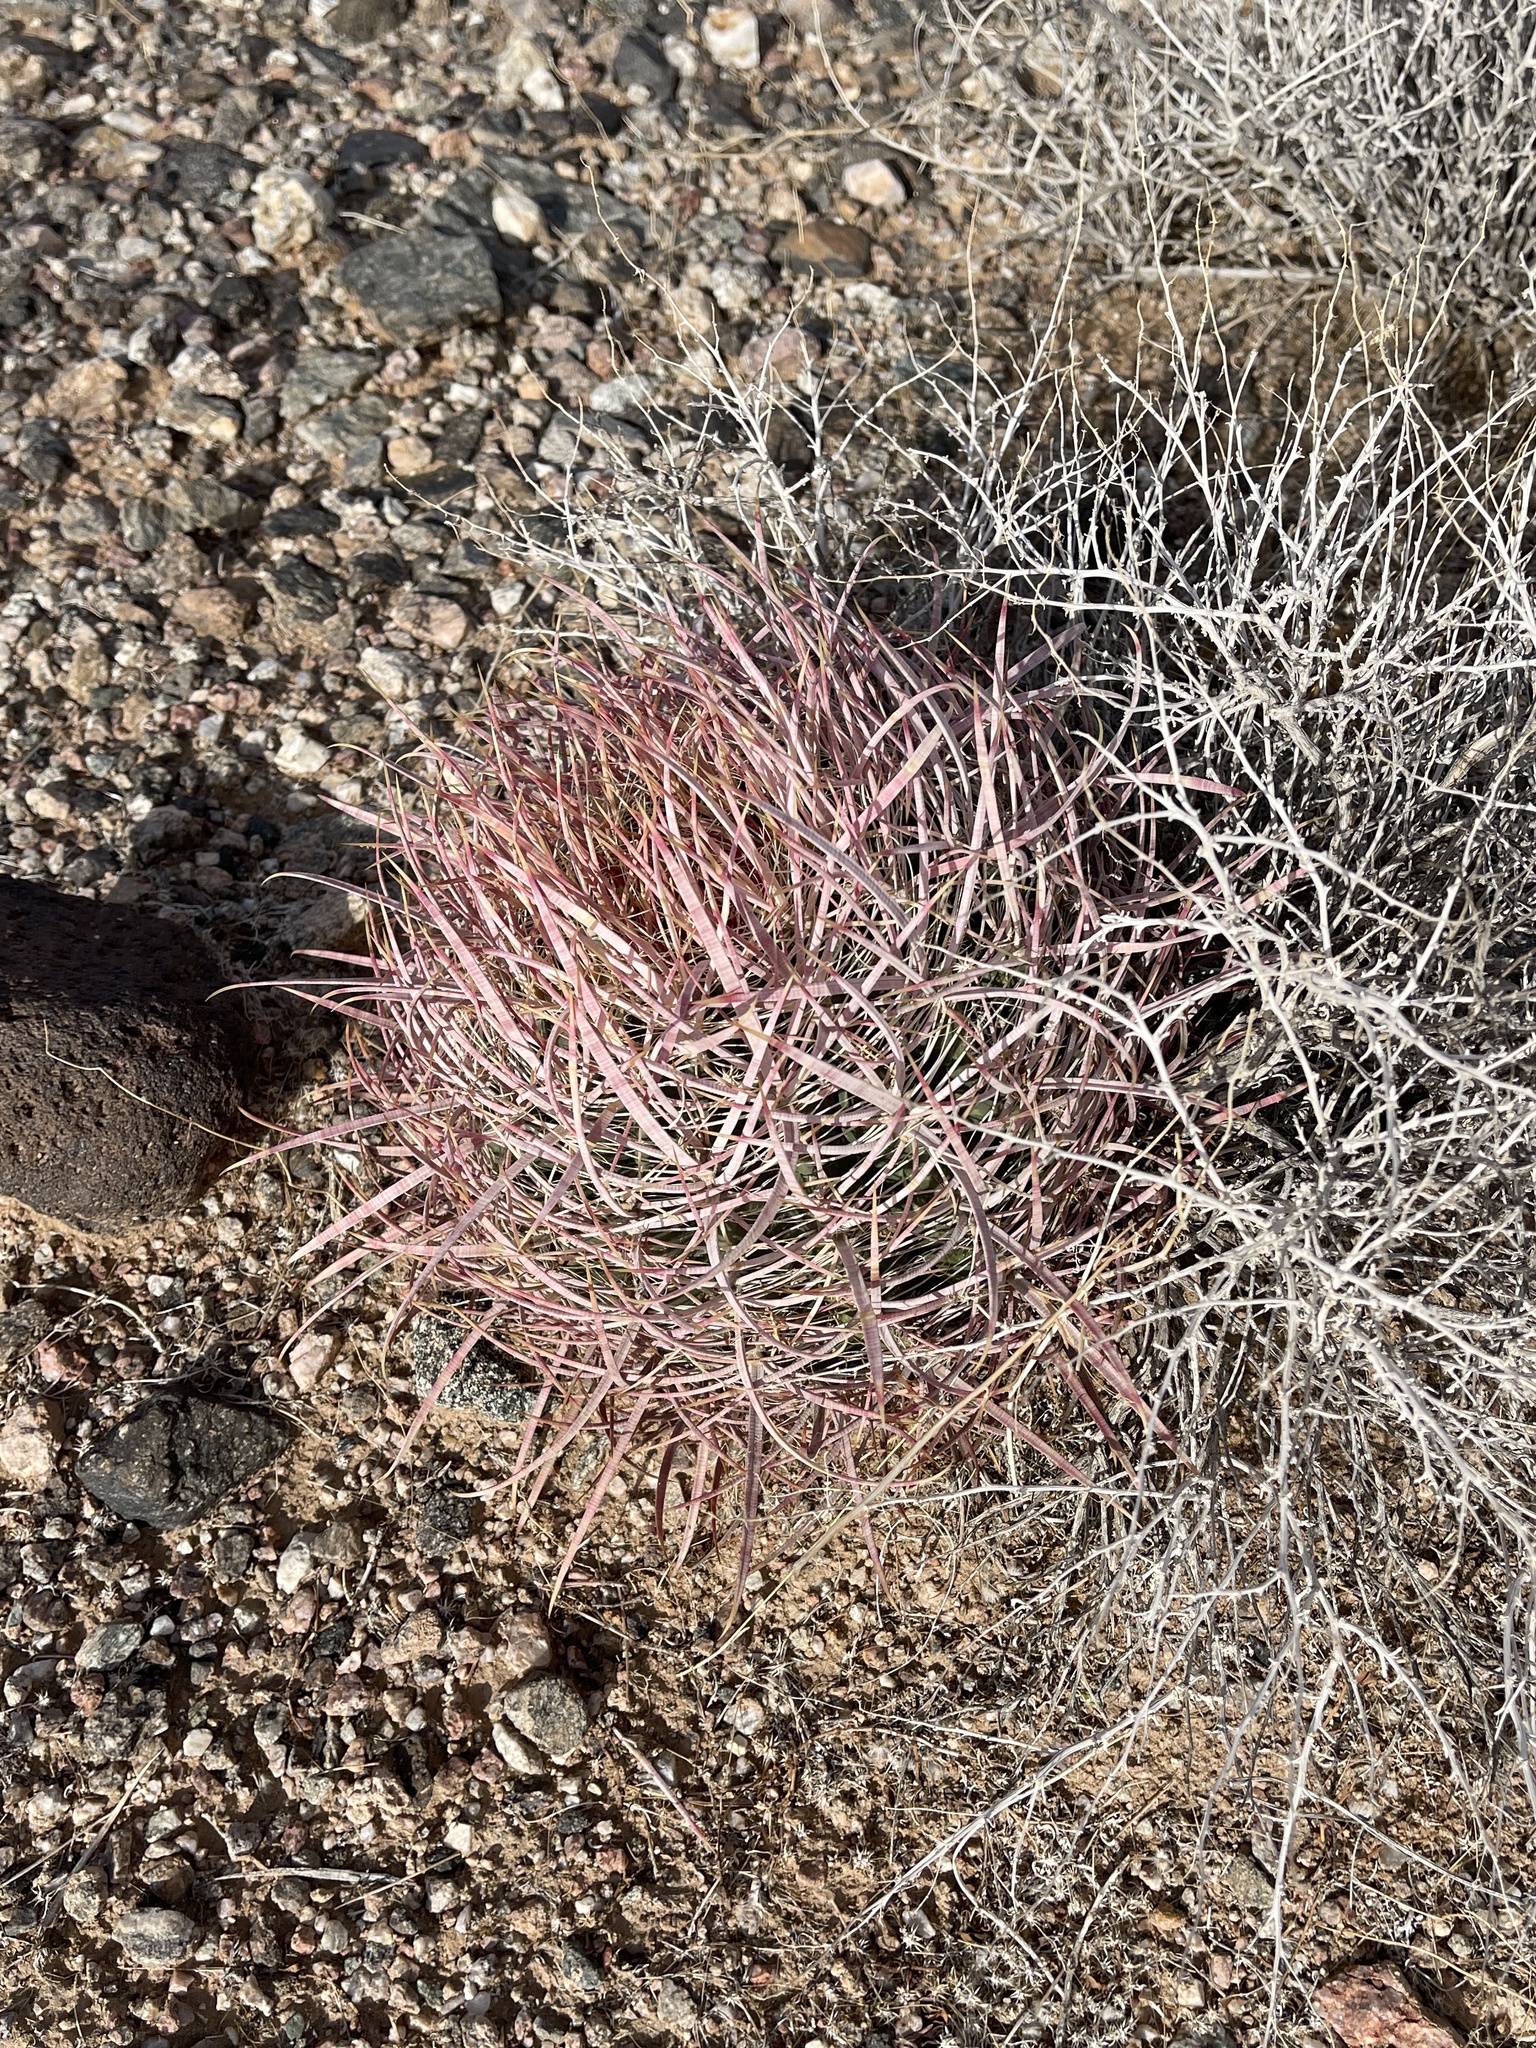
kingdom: Plantae
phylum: Tracheophyta
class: Magnoliopsida
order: Caryophyllales
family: Cactaceae
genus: Ferocactus
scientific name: Ferocactus cylindraceus
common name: California barrel cactus
